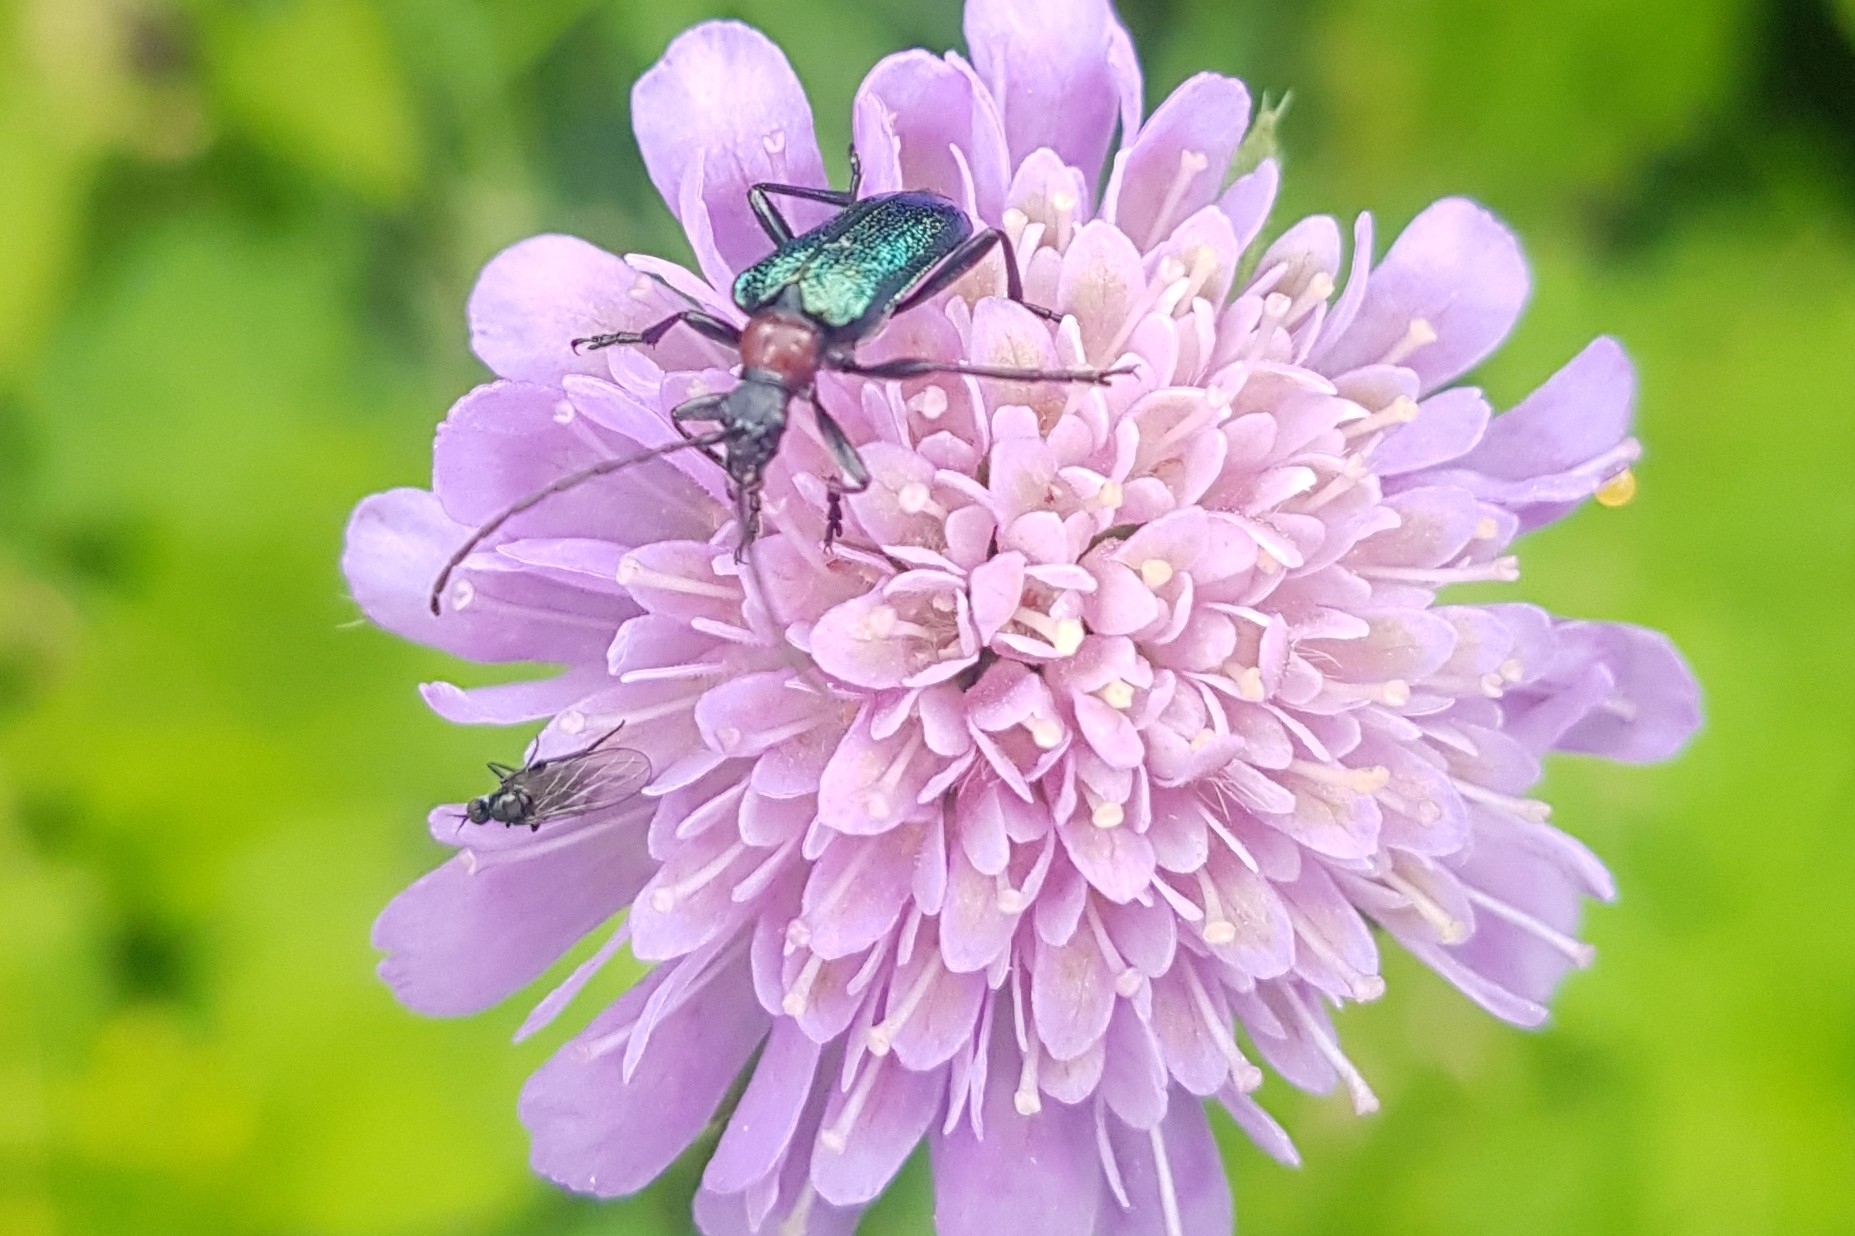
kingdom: Animalia
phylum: Arthropoda
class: Insecta
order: Coleoptera
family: Cerambycidae
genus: Gaurotes
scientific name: Gaurotes virginea
